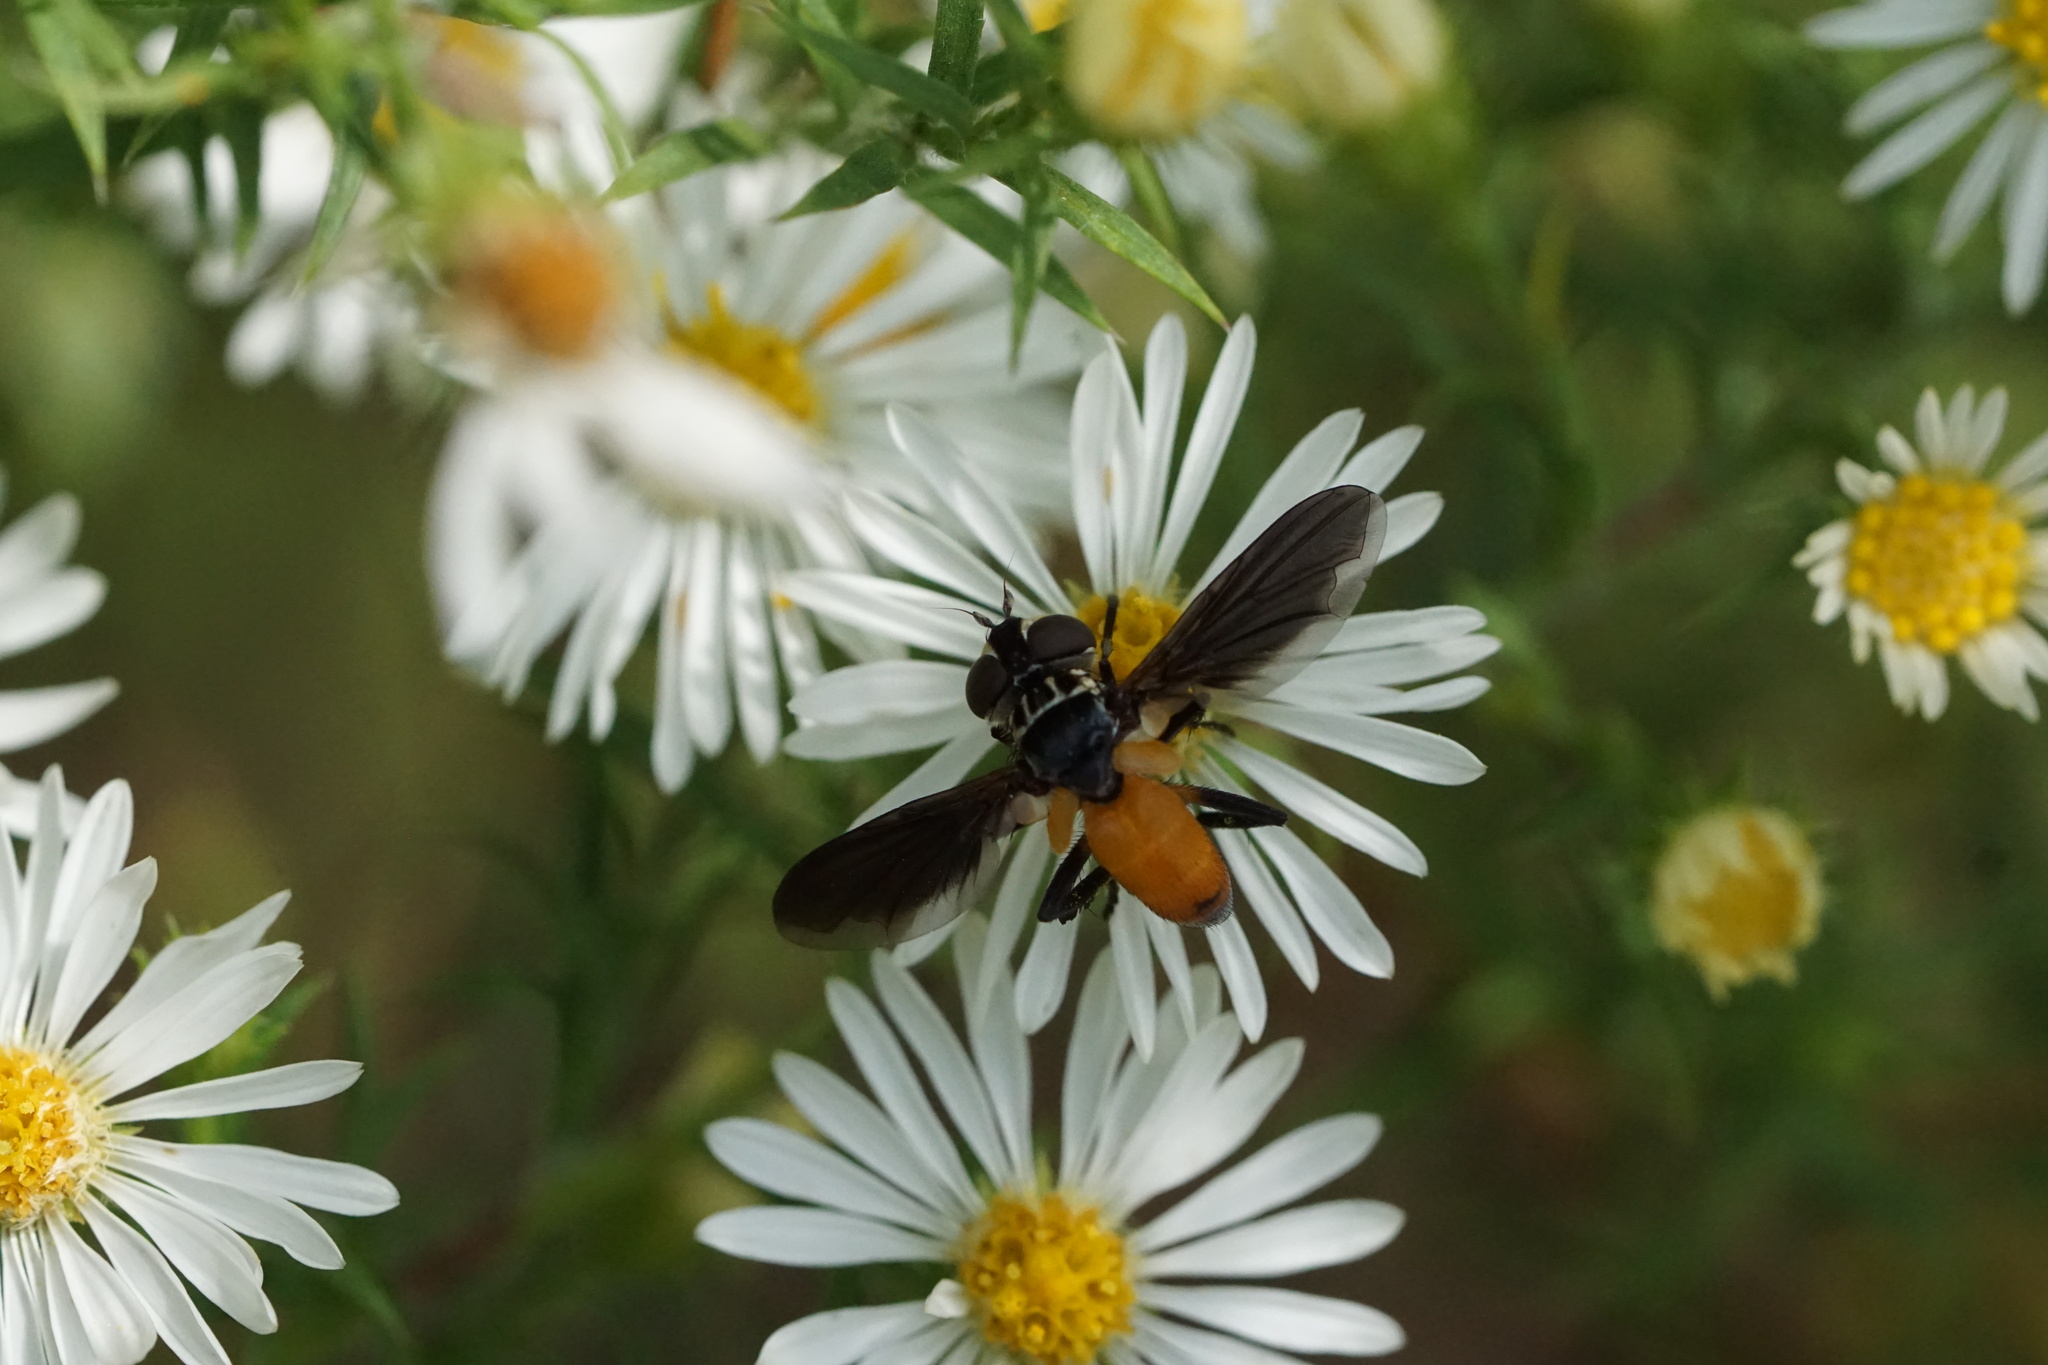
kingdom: Animalia
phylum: Arthropoda
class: Insecta
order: Diptera
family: Tachinidae
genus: Trichopoda
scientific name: Trichopoda pennipes
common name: Tachinid fly
